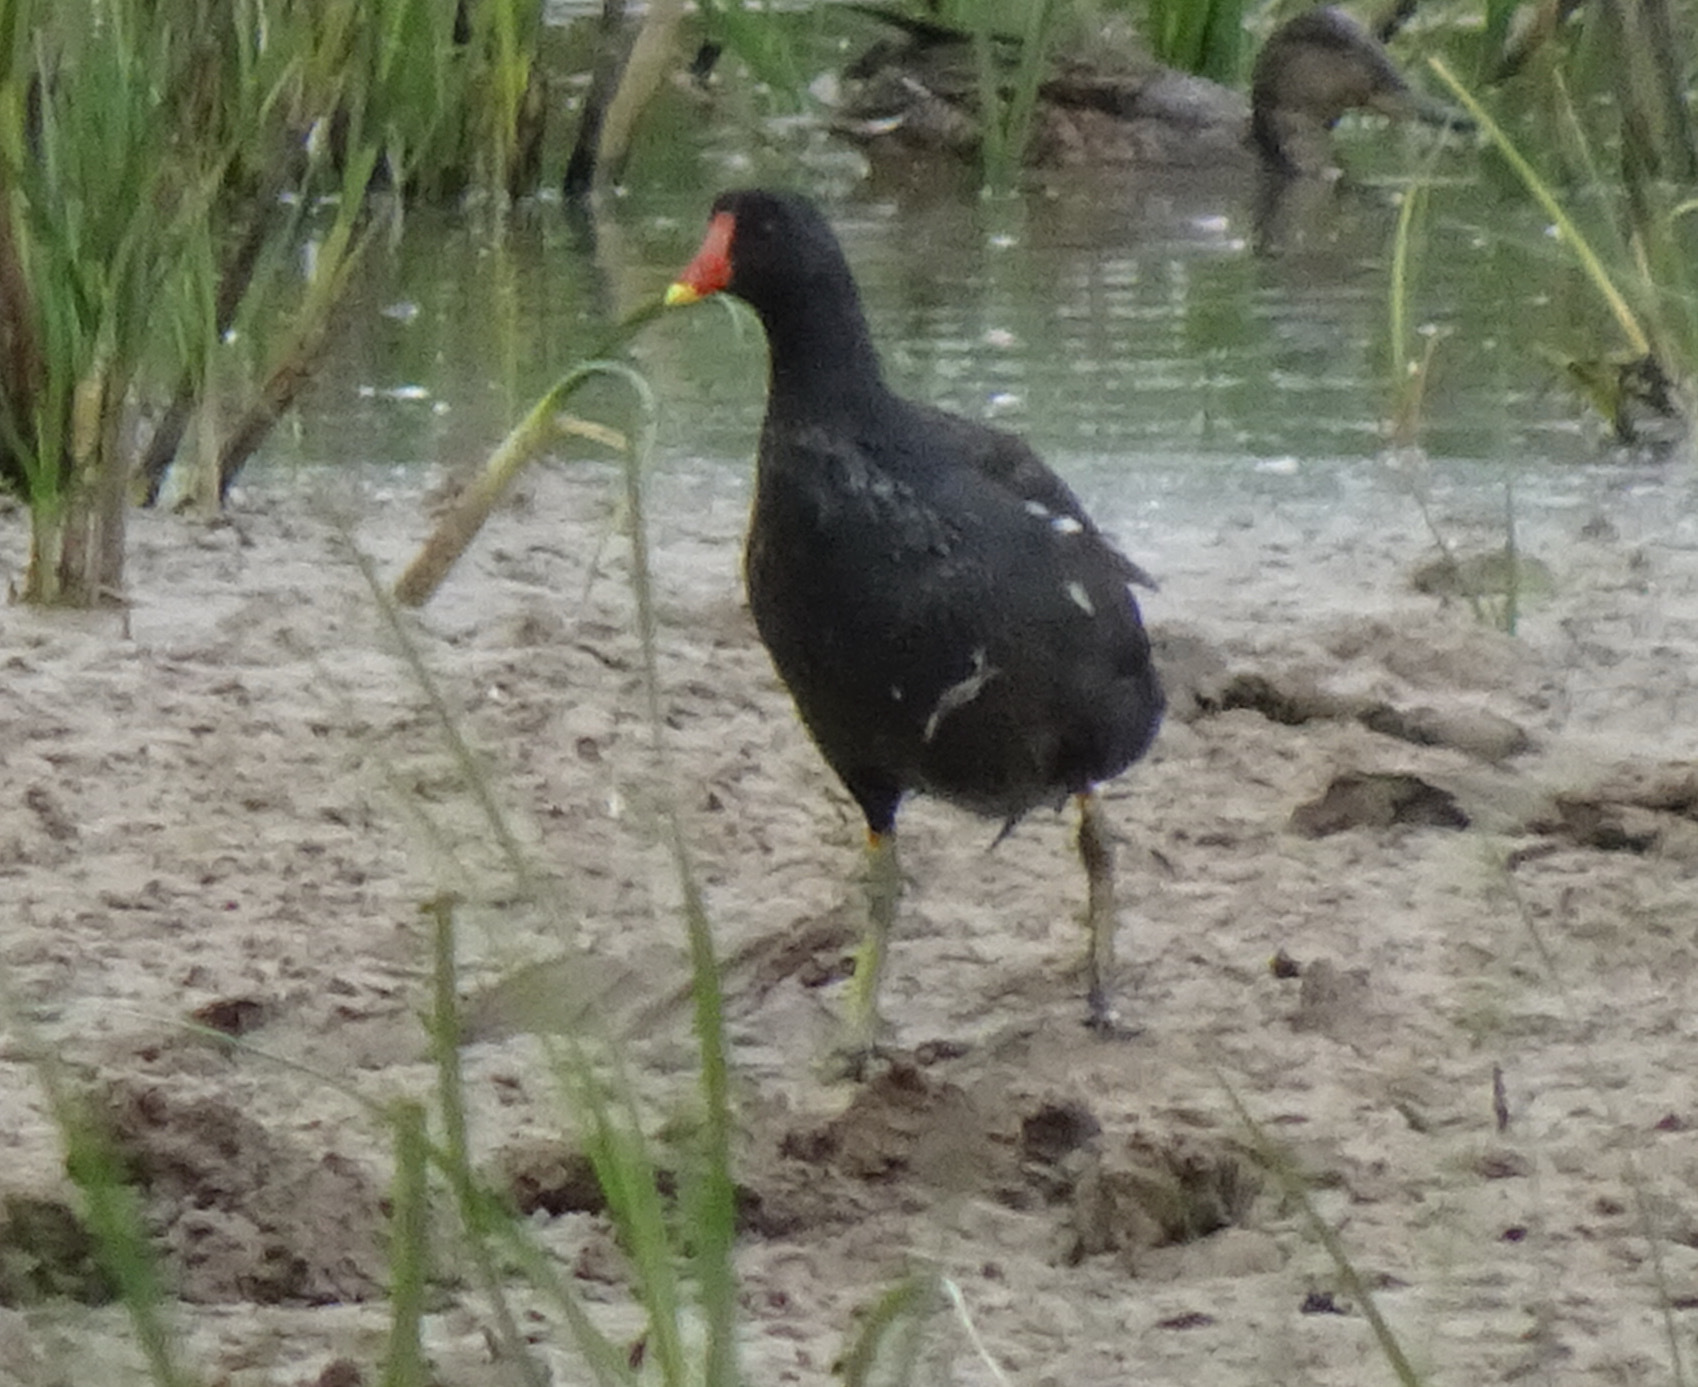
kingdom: Animalia
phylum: Chordata
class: Aves
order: Gruiformes
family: Rallidae
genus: Gallinula
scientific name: Gallinula chloropus
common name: Common moorhen
